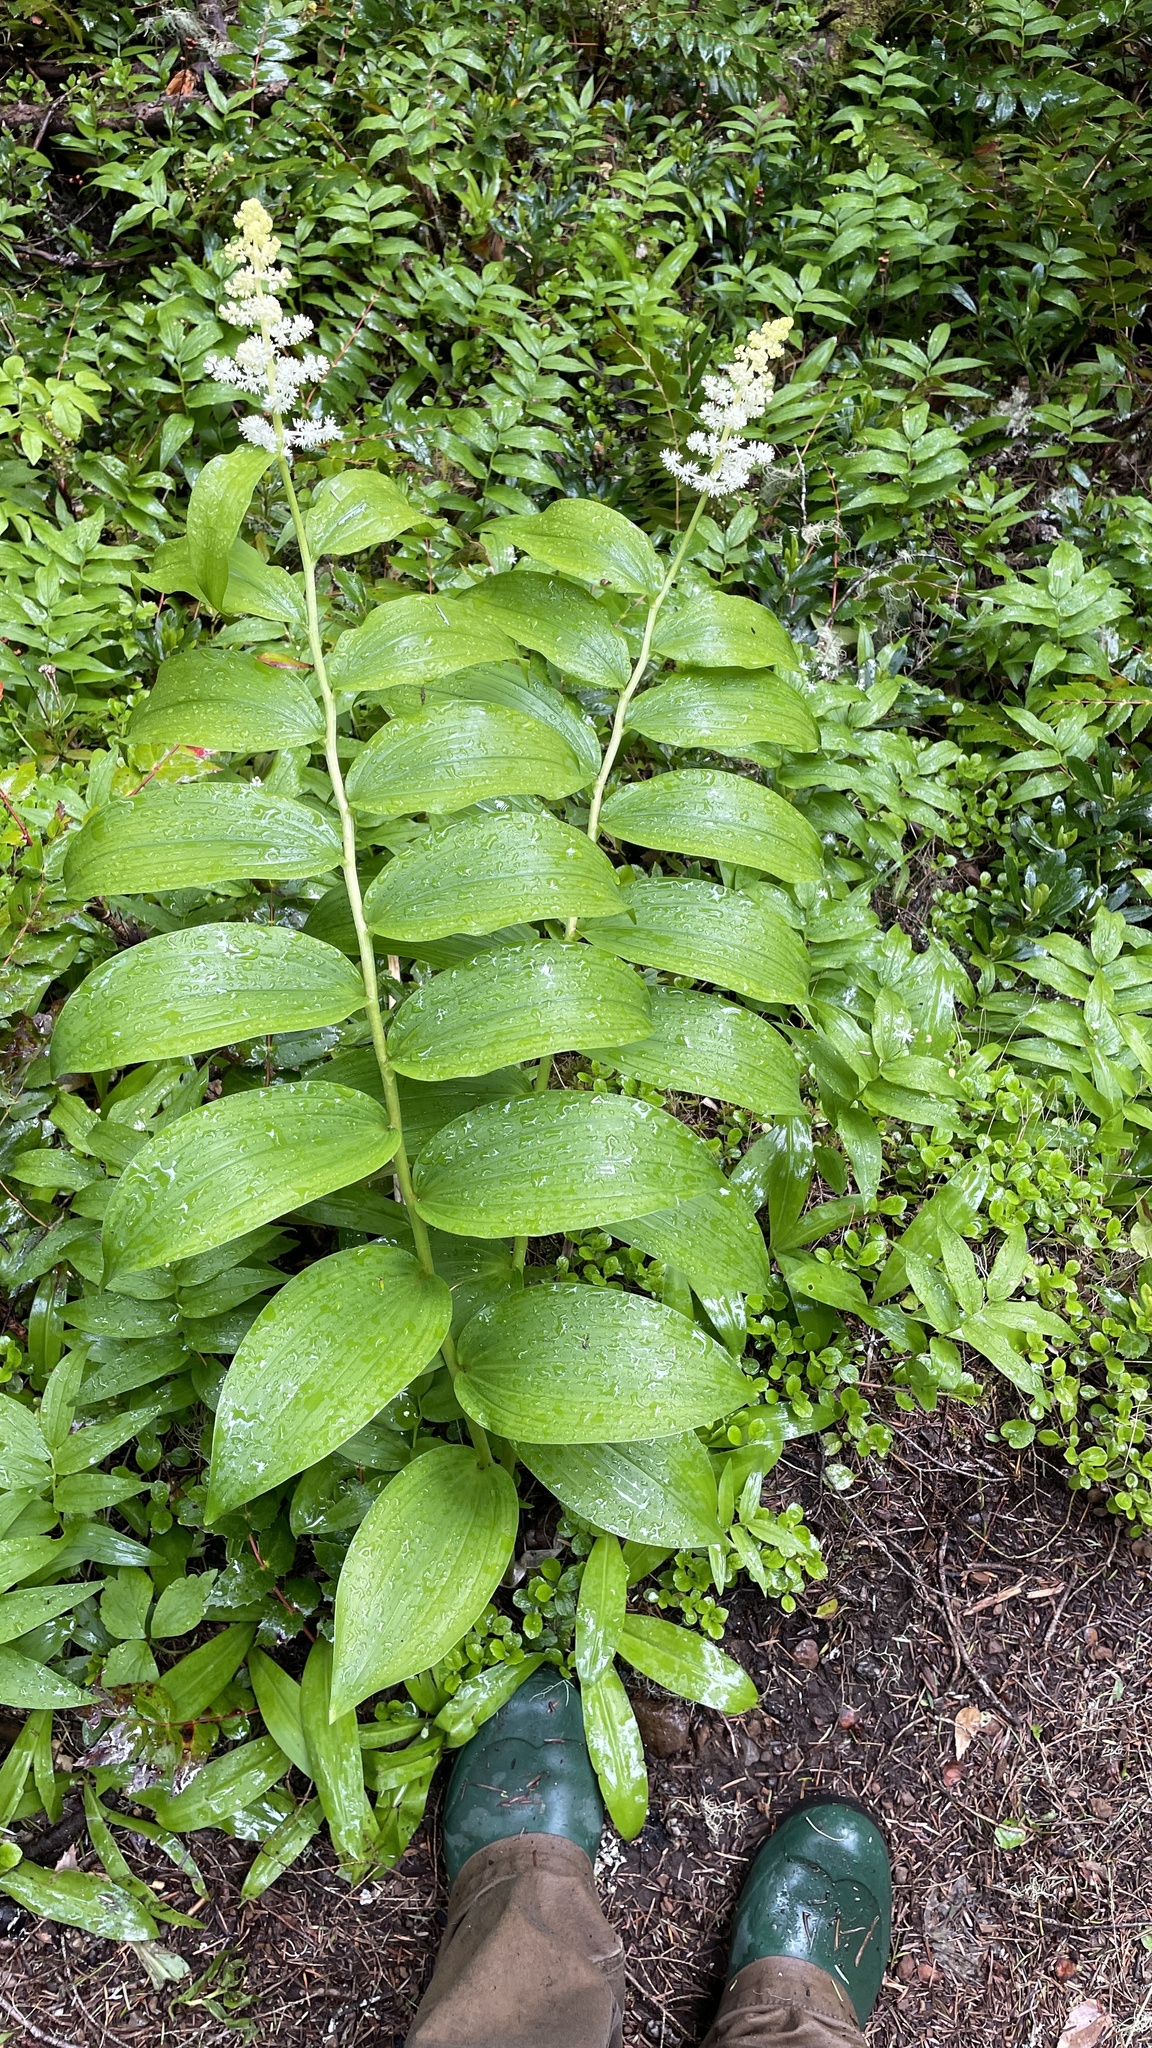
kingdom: Plantae
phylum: Tracheophyta
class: Liliopsida
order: Asparagales
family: Asparagaceae
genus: Maianthemum
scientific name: Maianthemum racemosum
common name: False spikenard
